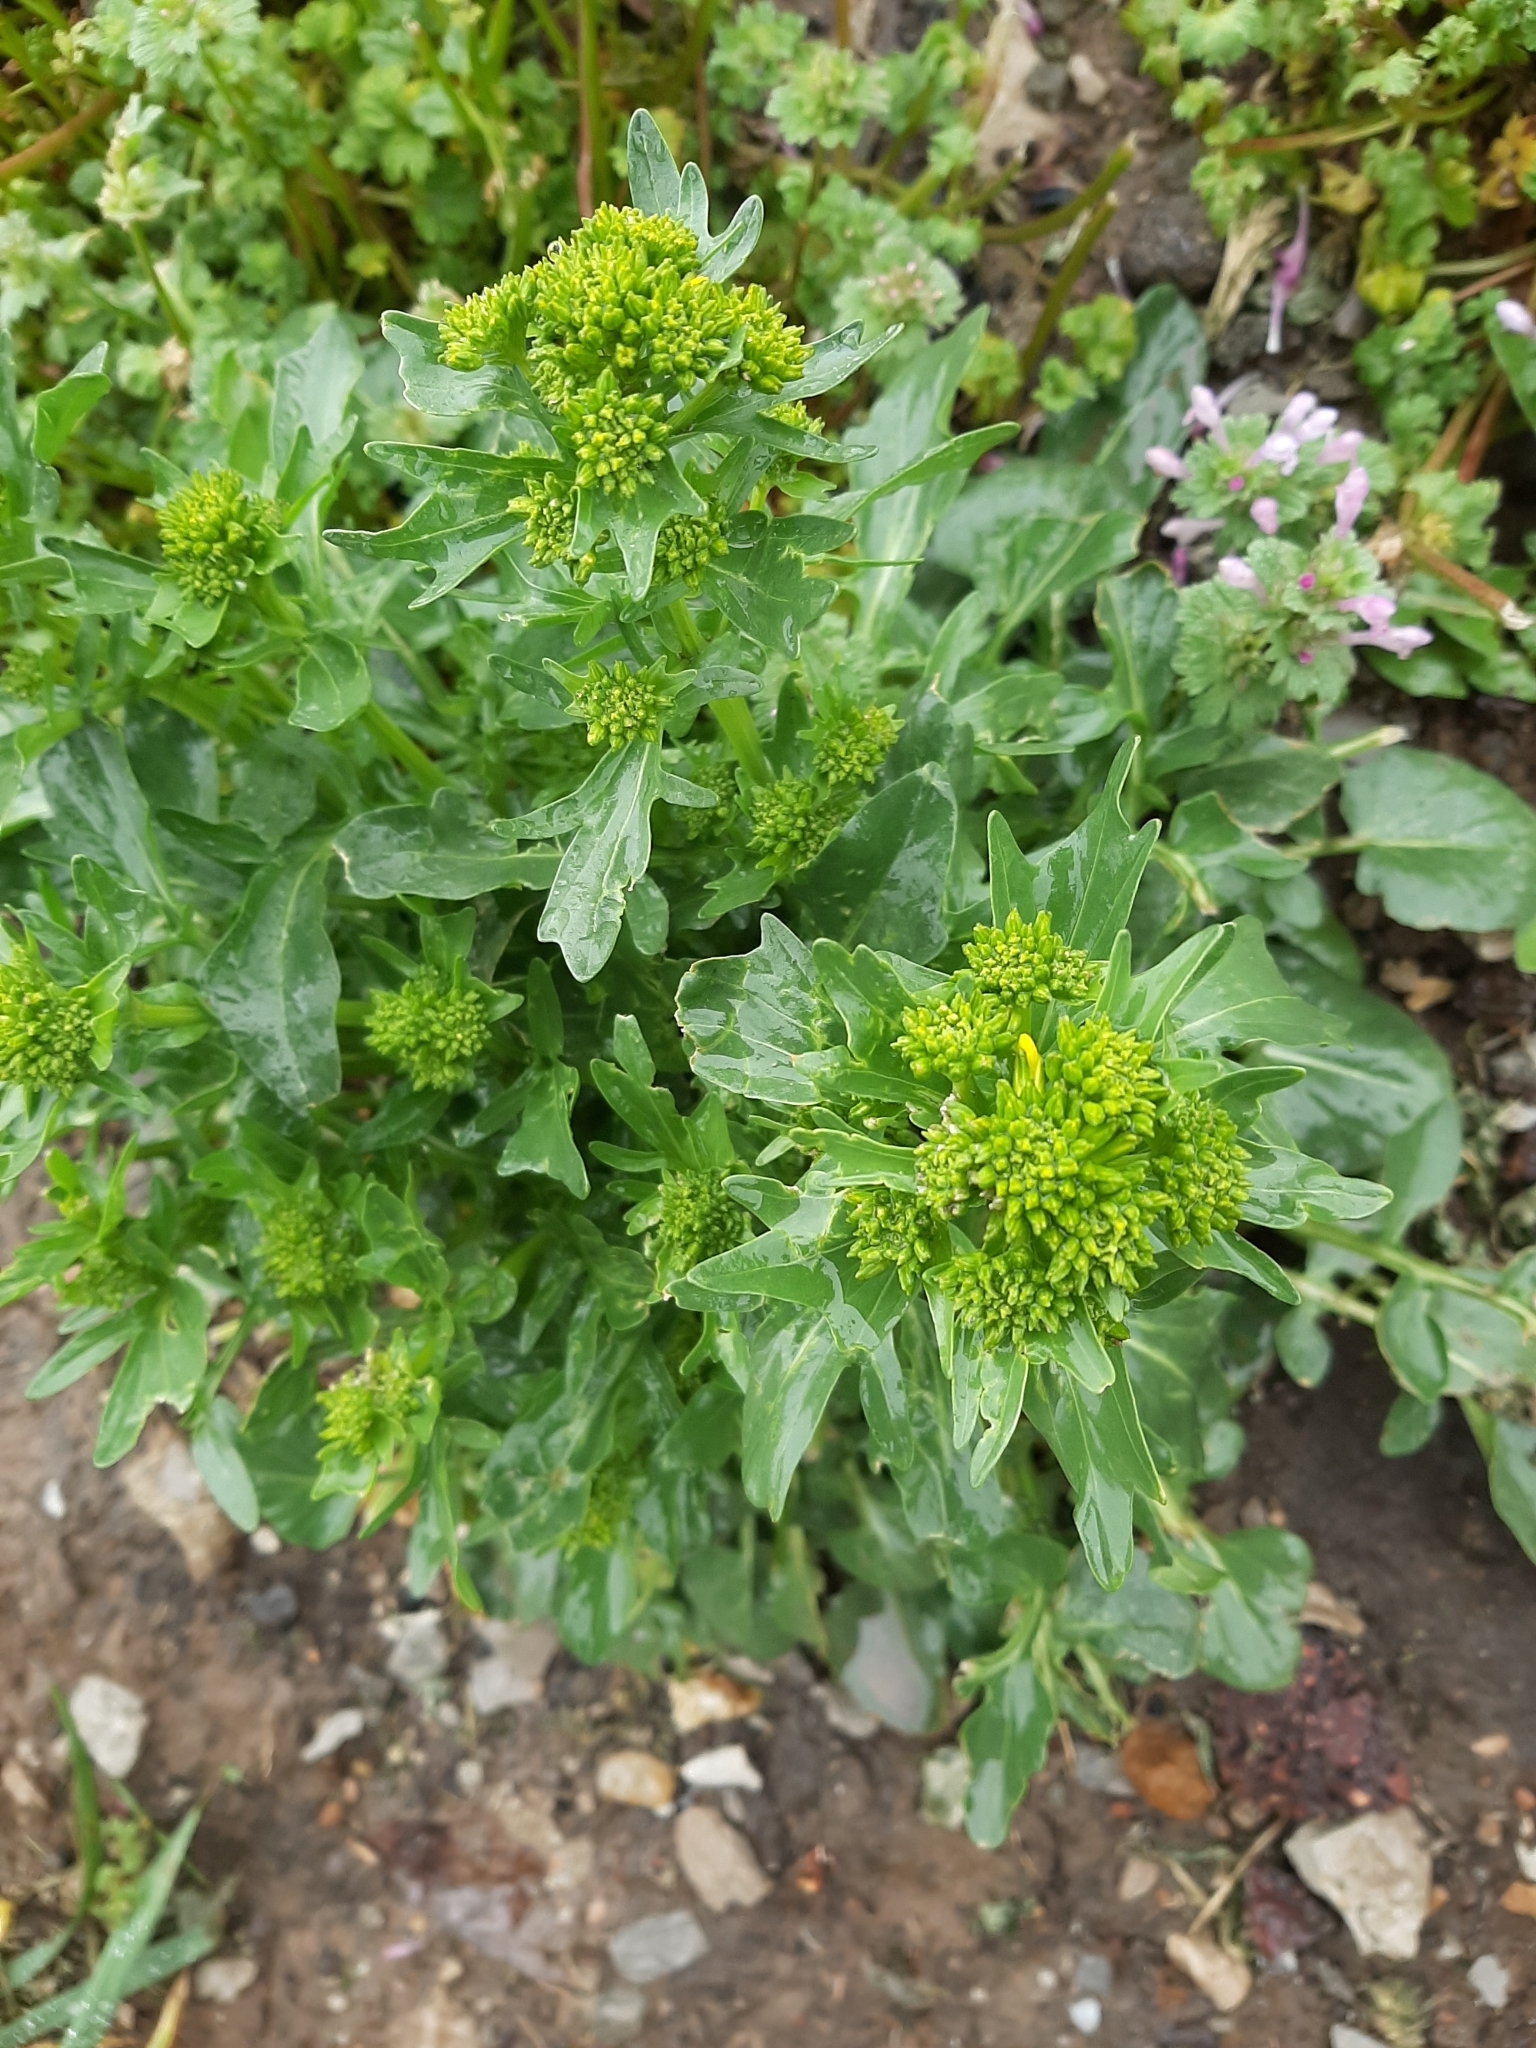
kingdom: Plantae
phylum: Tracheophyta
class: Magnoliopsida
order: Brassicales
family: Brassicaceae
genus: Barbarea
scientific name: Barbarea vulgaris
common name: Cressy-greens
